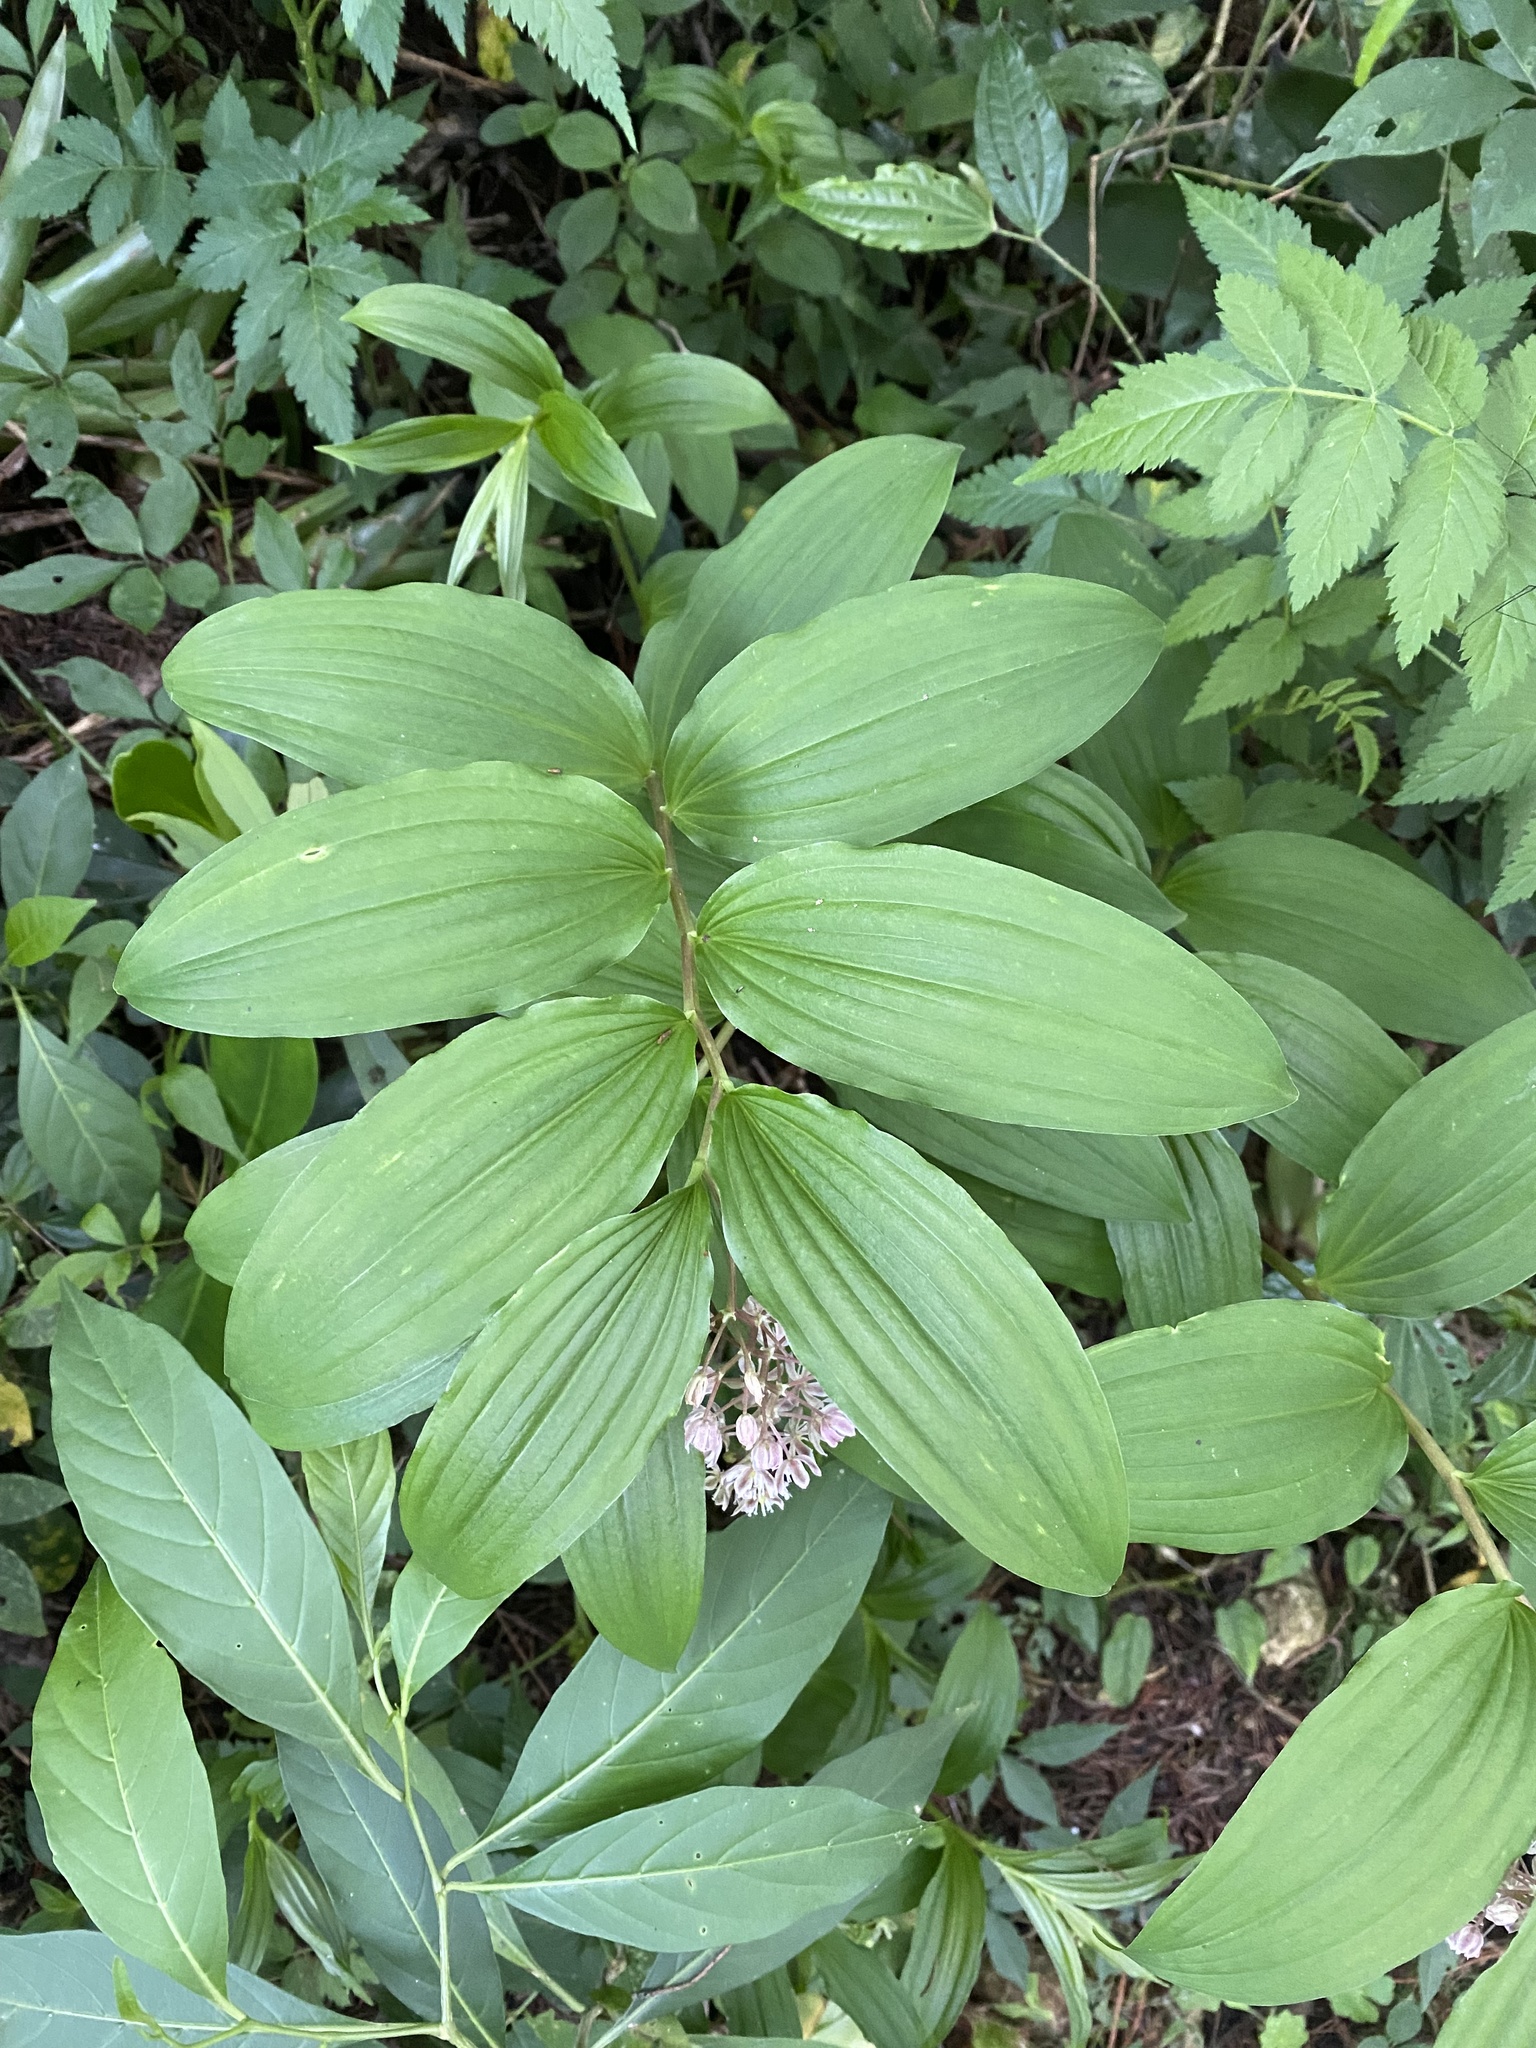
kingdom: Plantae
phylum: Tracheophyta
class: Liliopsida
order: Asparagales
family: Asparagaceae
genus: Maianthemum
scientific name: Maianthemum flexuosum
